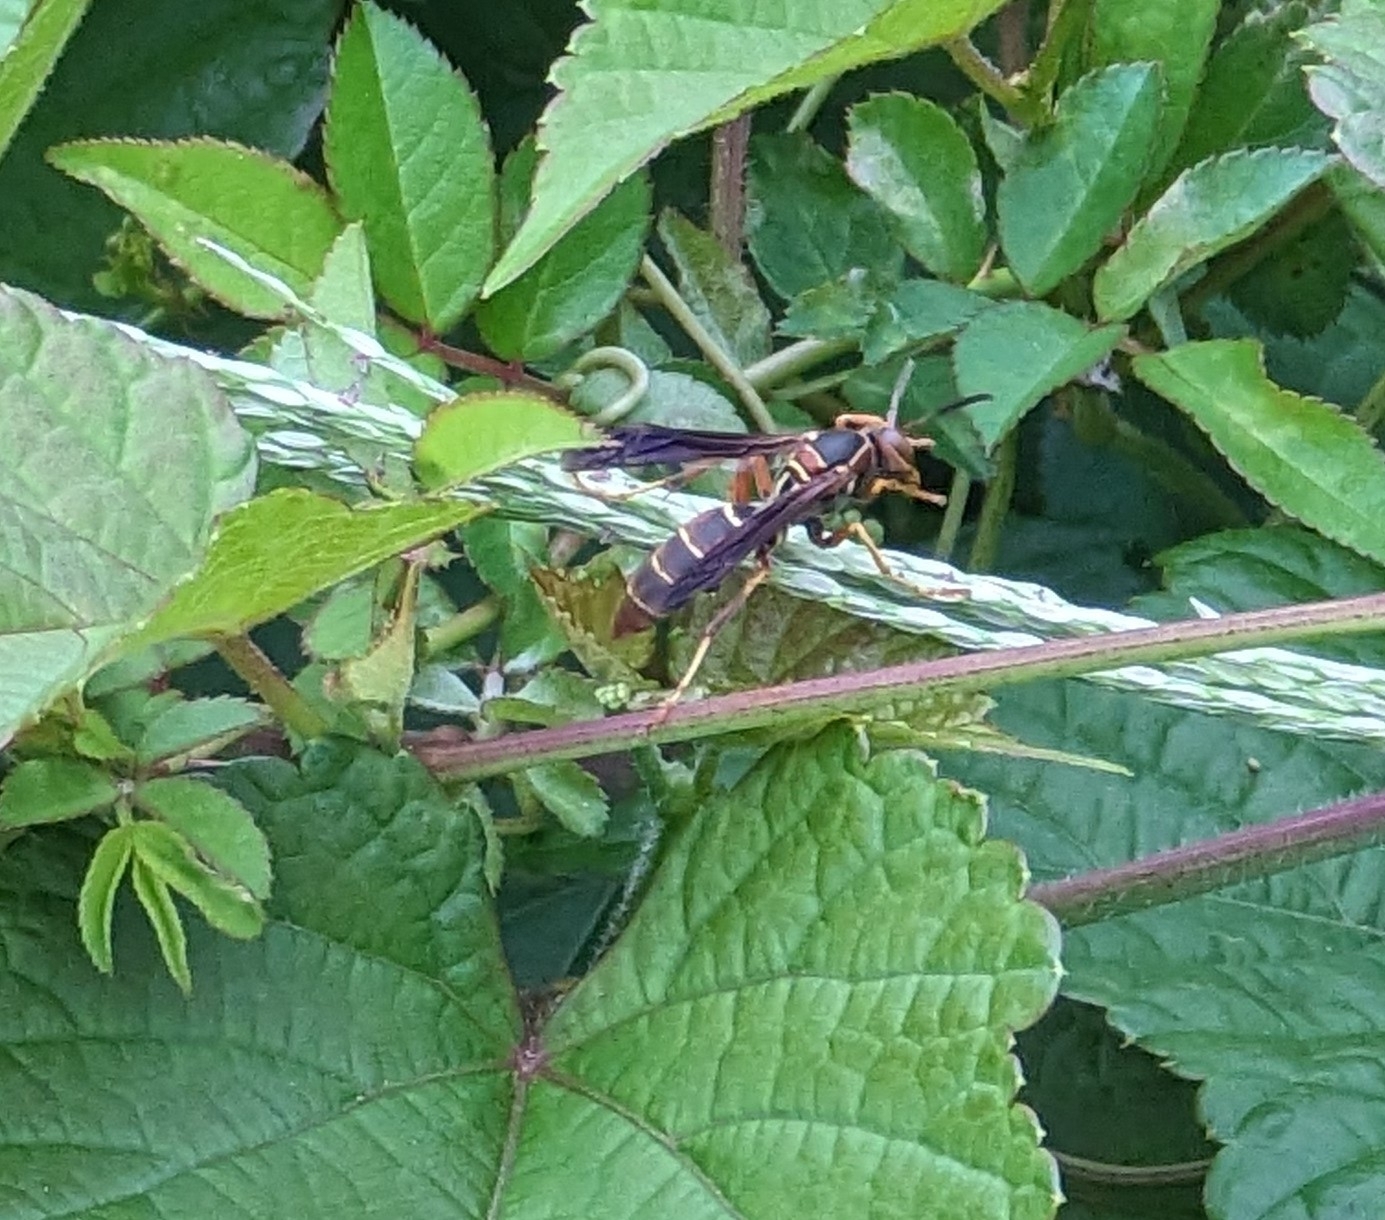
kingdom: Animalia
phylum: Arthropoda
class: Insecta
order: Hymenoptera
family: Eumenidae
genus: Polistes
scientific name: Polistes fuscatus
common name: Dark paper wasp
